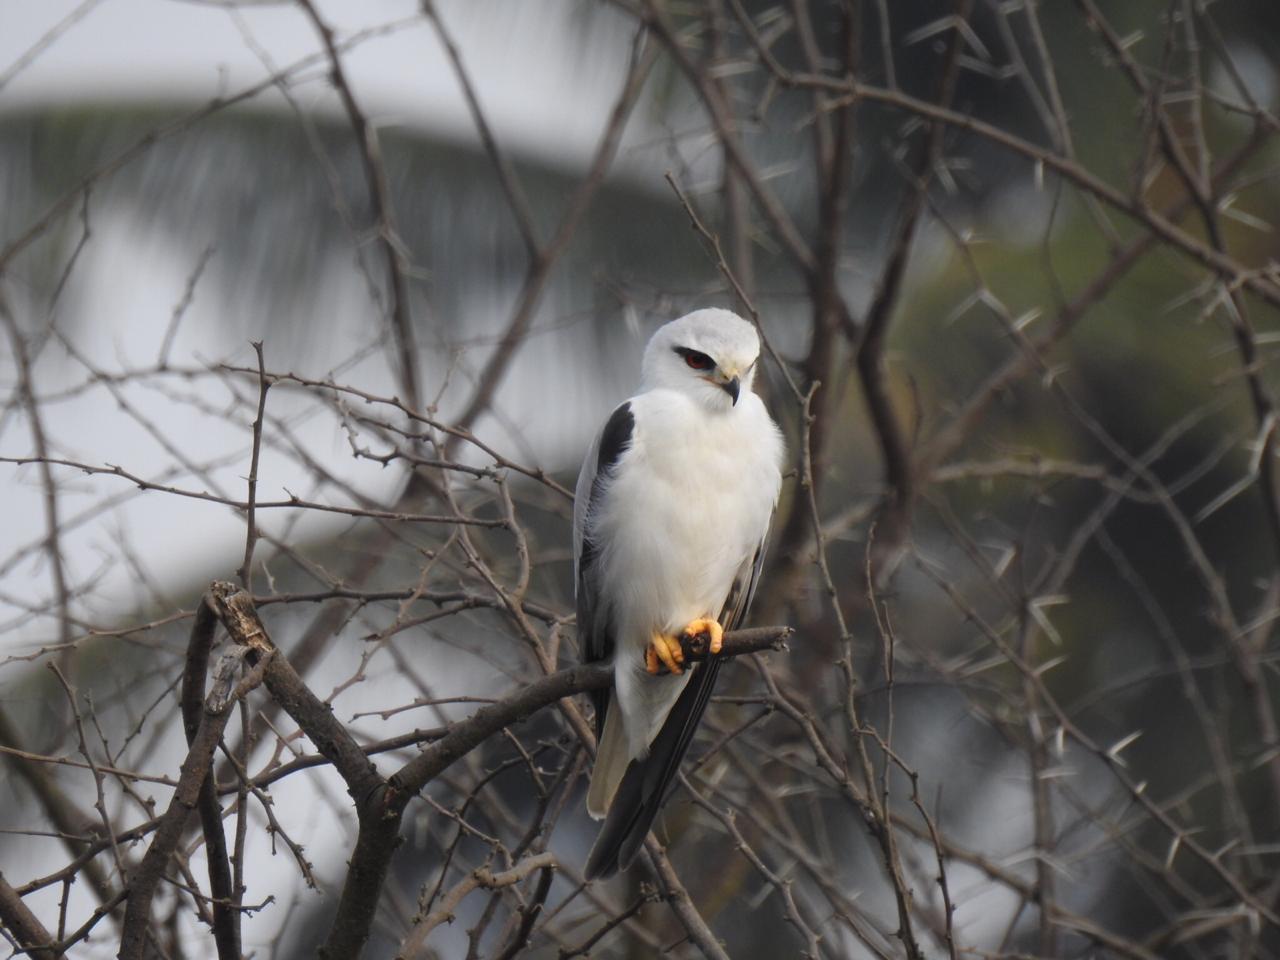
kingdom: Animalia
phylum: Chordata
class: Aves
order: Accipitriformes
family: Accipitridae
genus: Elanus
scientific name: Elanus caeruleus
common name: Black-winged kite
